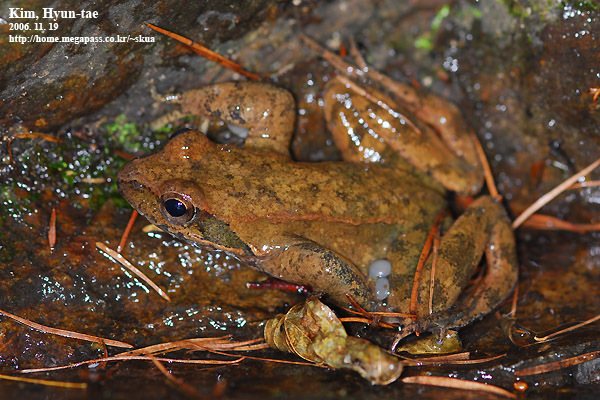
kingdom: Animalia
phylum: Chordata
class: Amphibia
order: Anura
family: Ranidae
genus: Rana
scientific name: Rana huanrenensis
